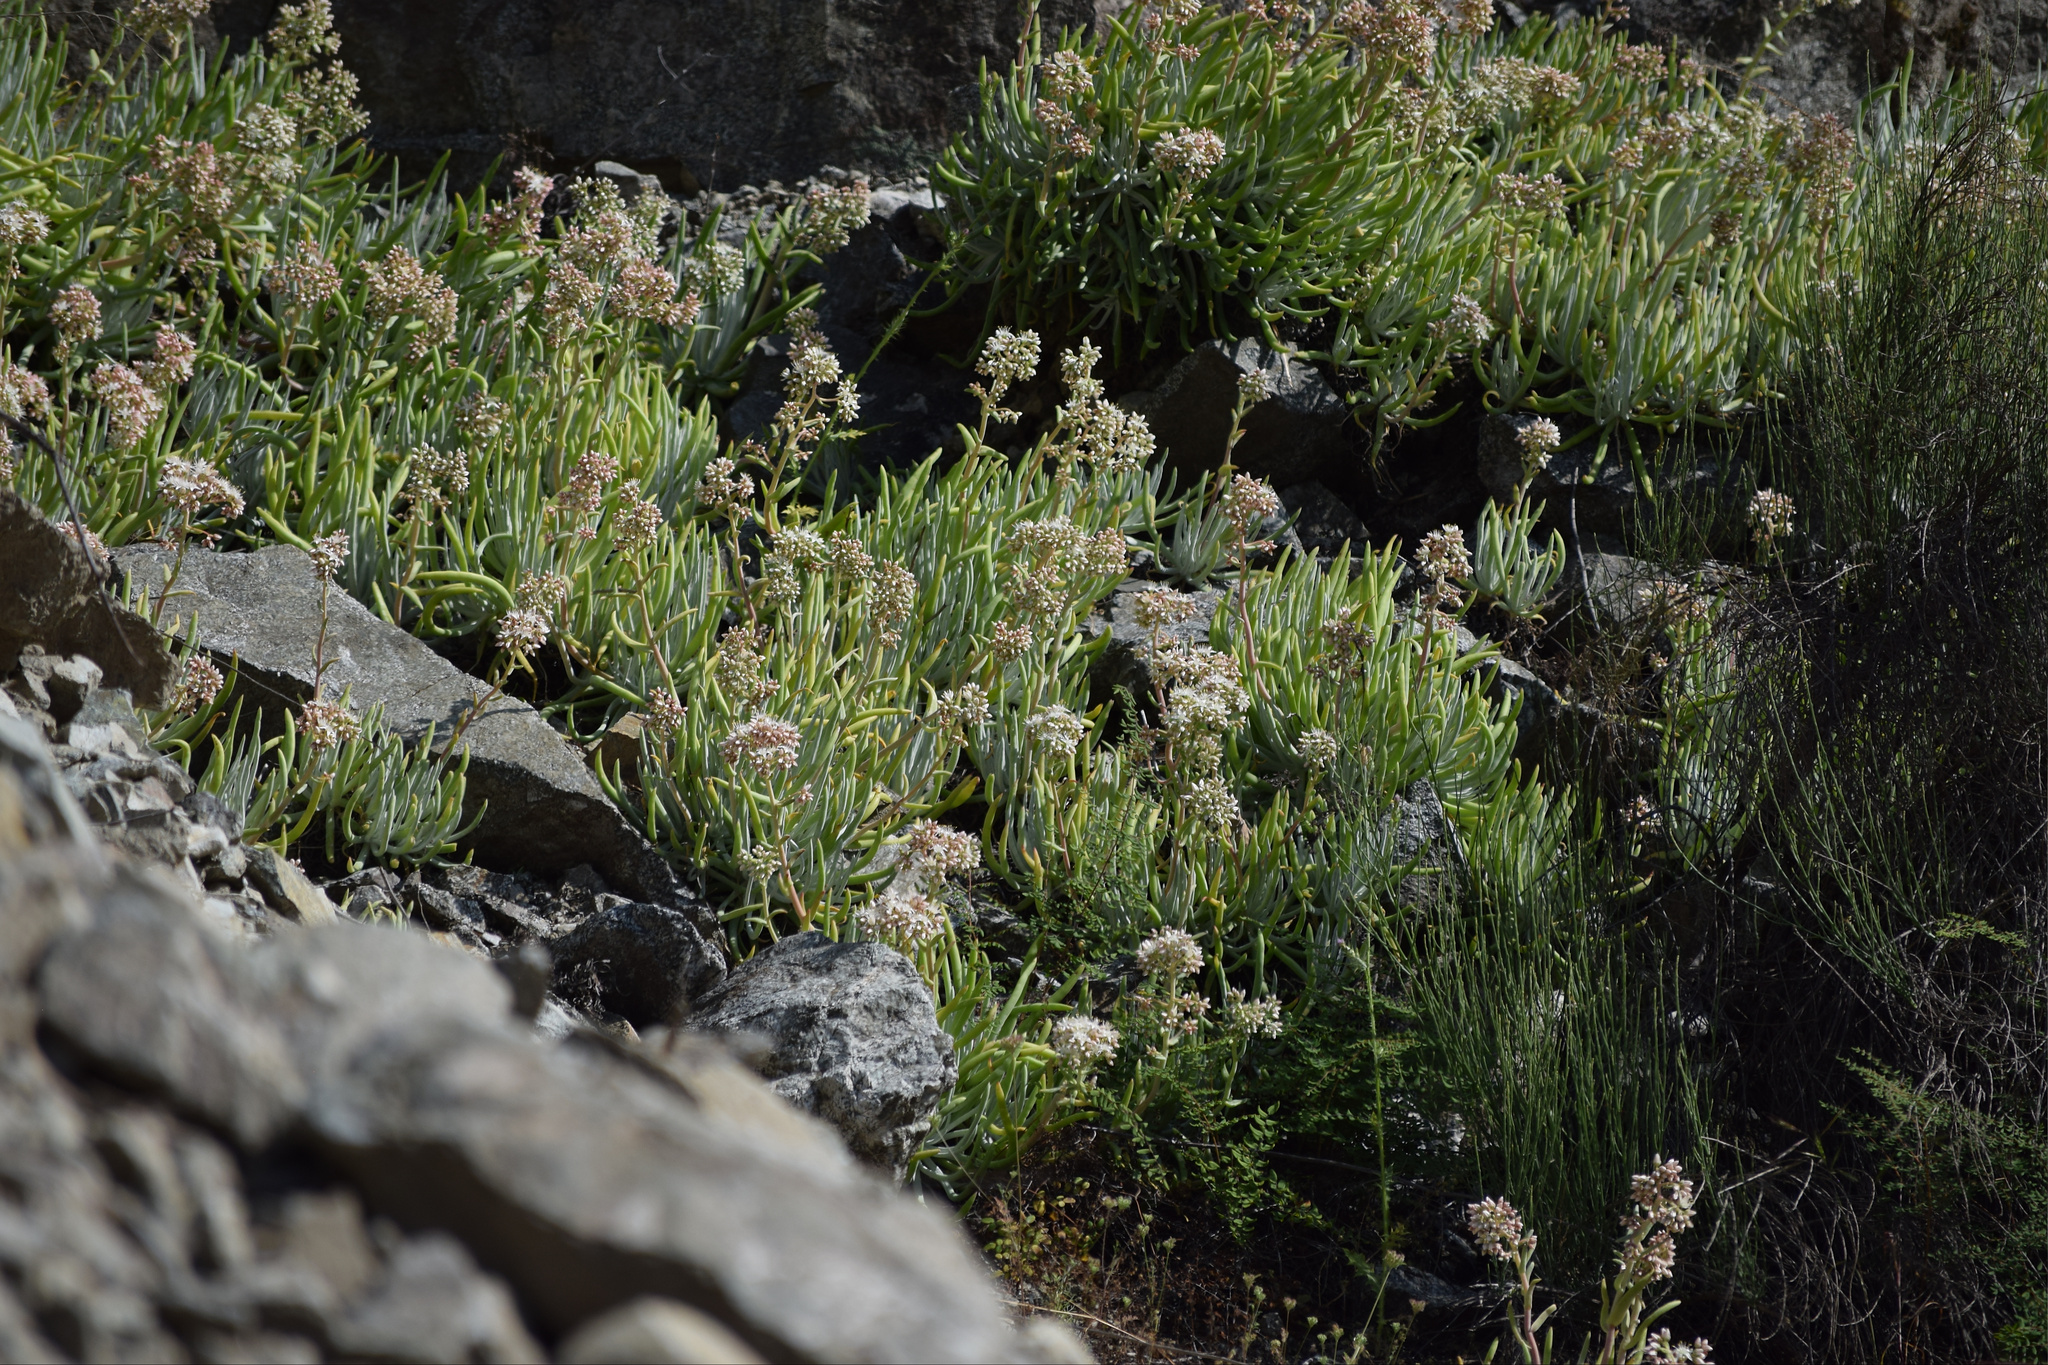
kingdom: Plantae
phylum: Tracheophyta
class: Magnoliopsida
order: Saxifragales
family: Crassulaceae
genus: Dudleya
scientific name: Dudleya densiflora
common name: San gabriel mountains dudleya
